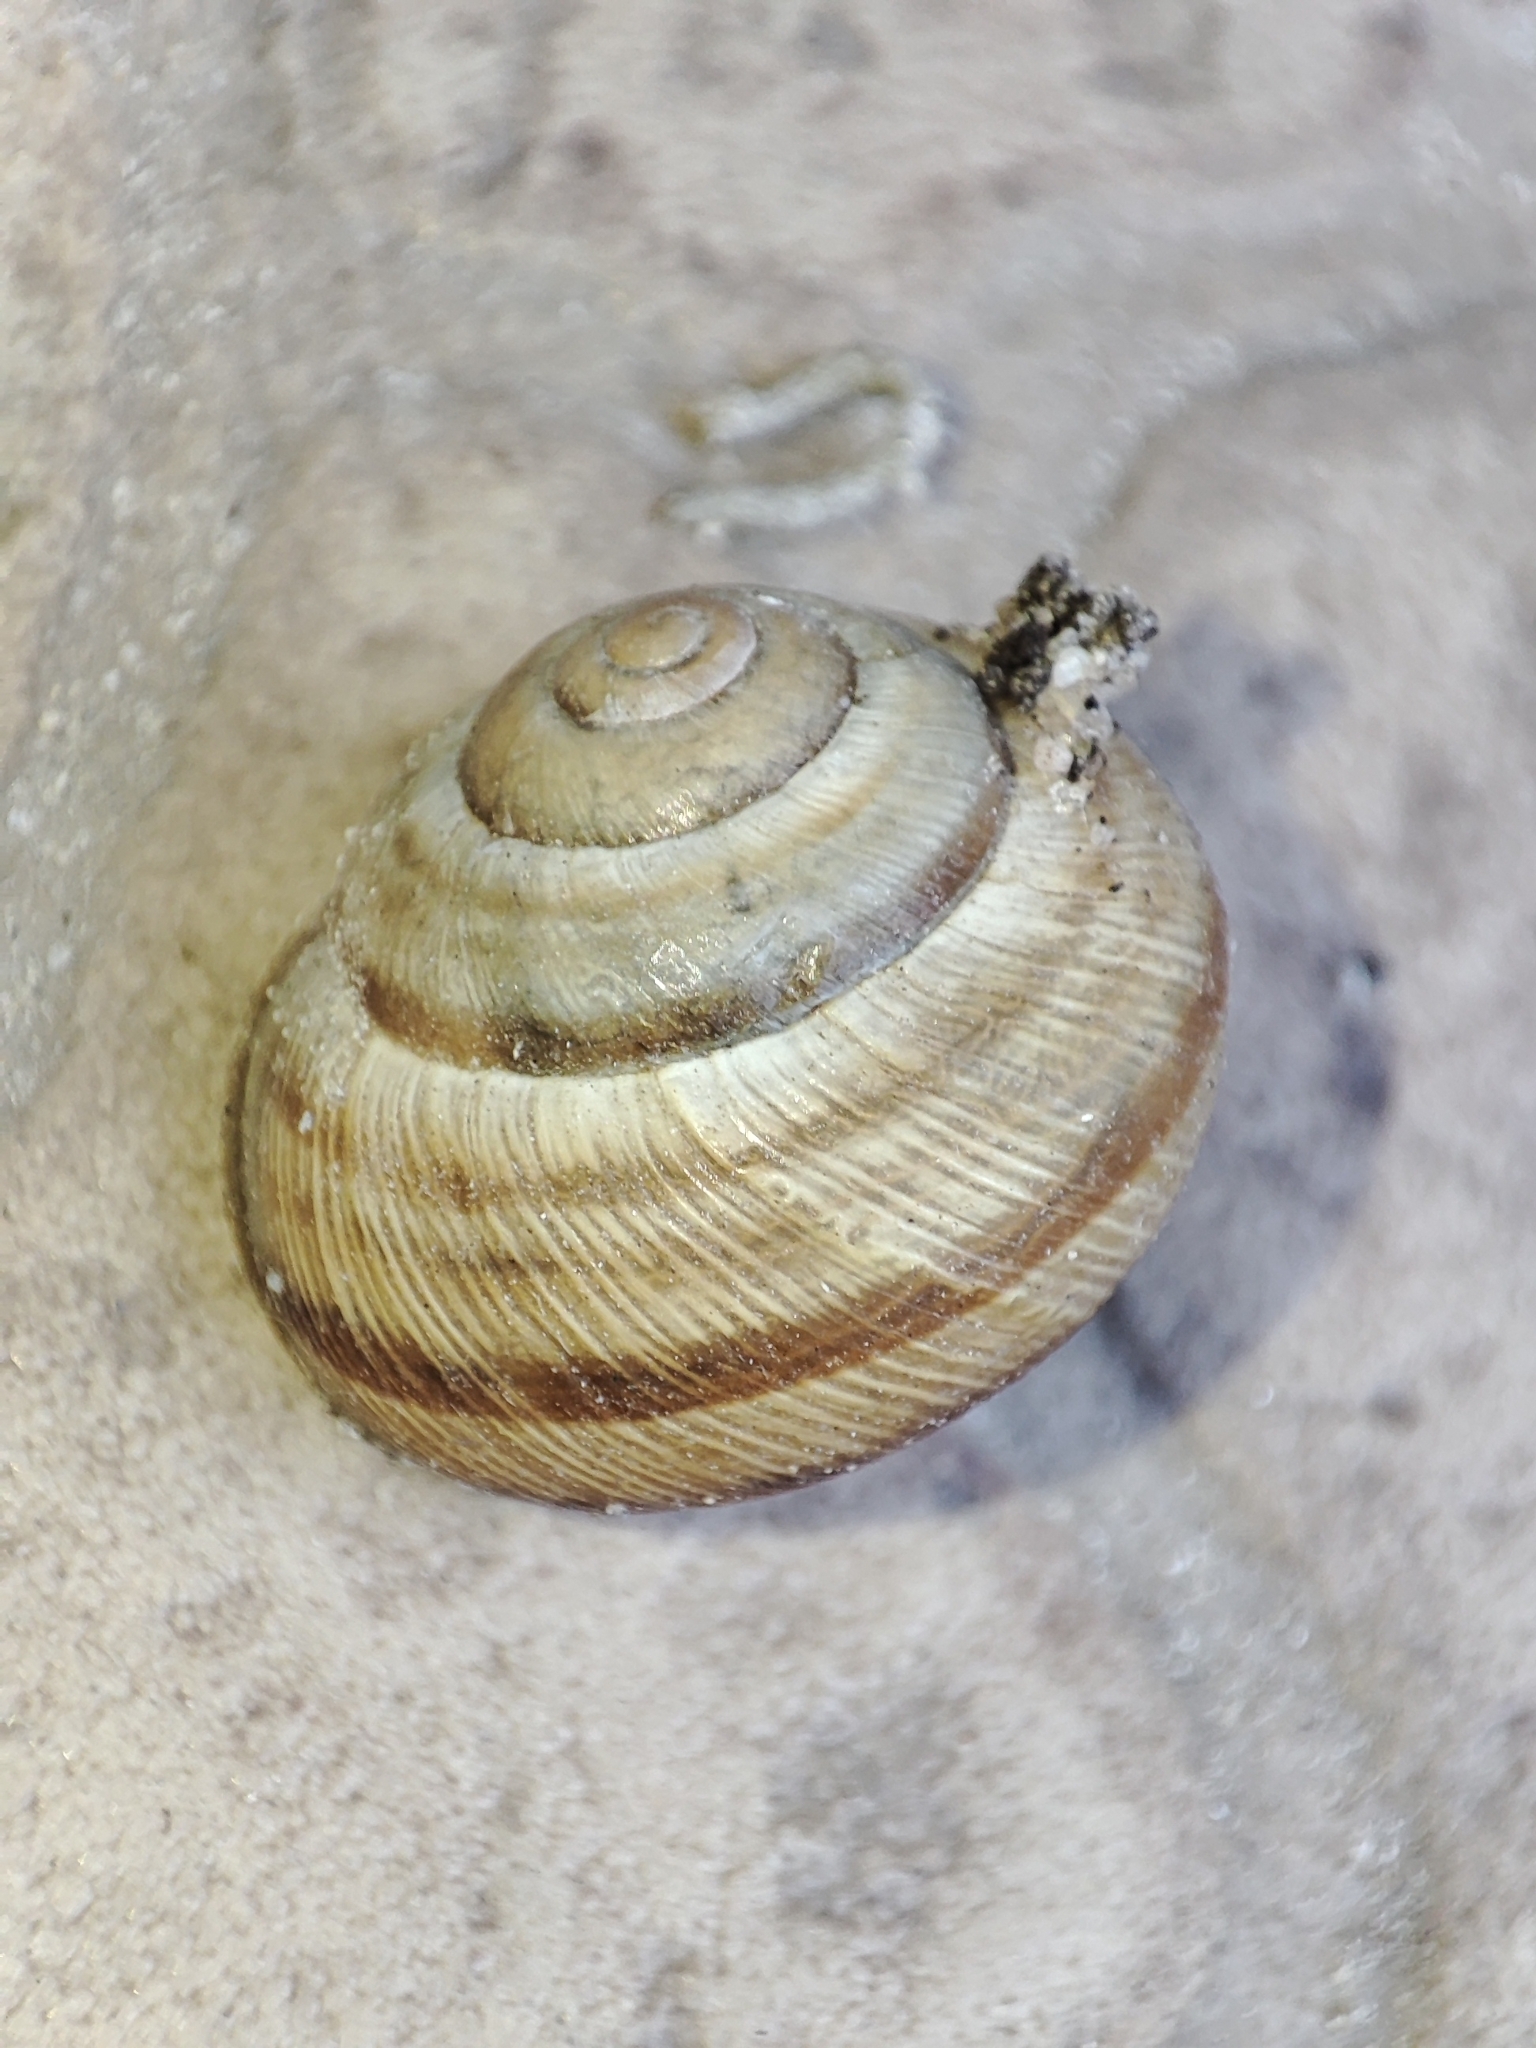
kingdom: Animalia
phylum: Mollusca
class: Gastropoda
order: Stylommatophora
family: Helicidae
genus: Caucasotachea
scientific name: Caucasotachea vindobonensis
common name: European helicid land snail
